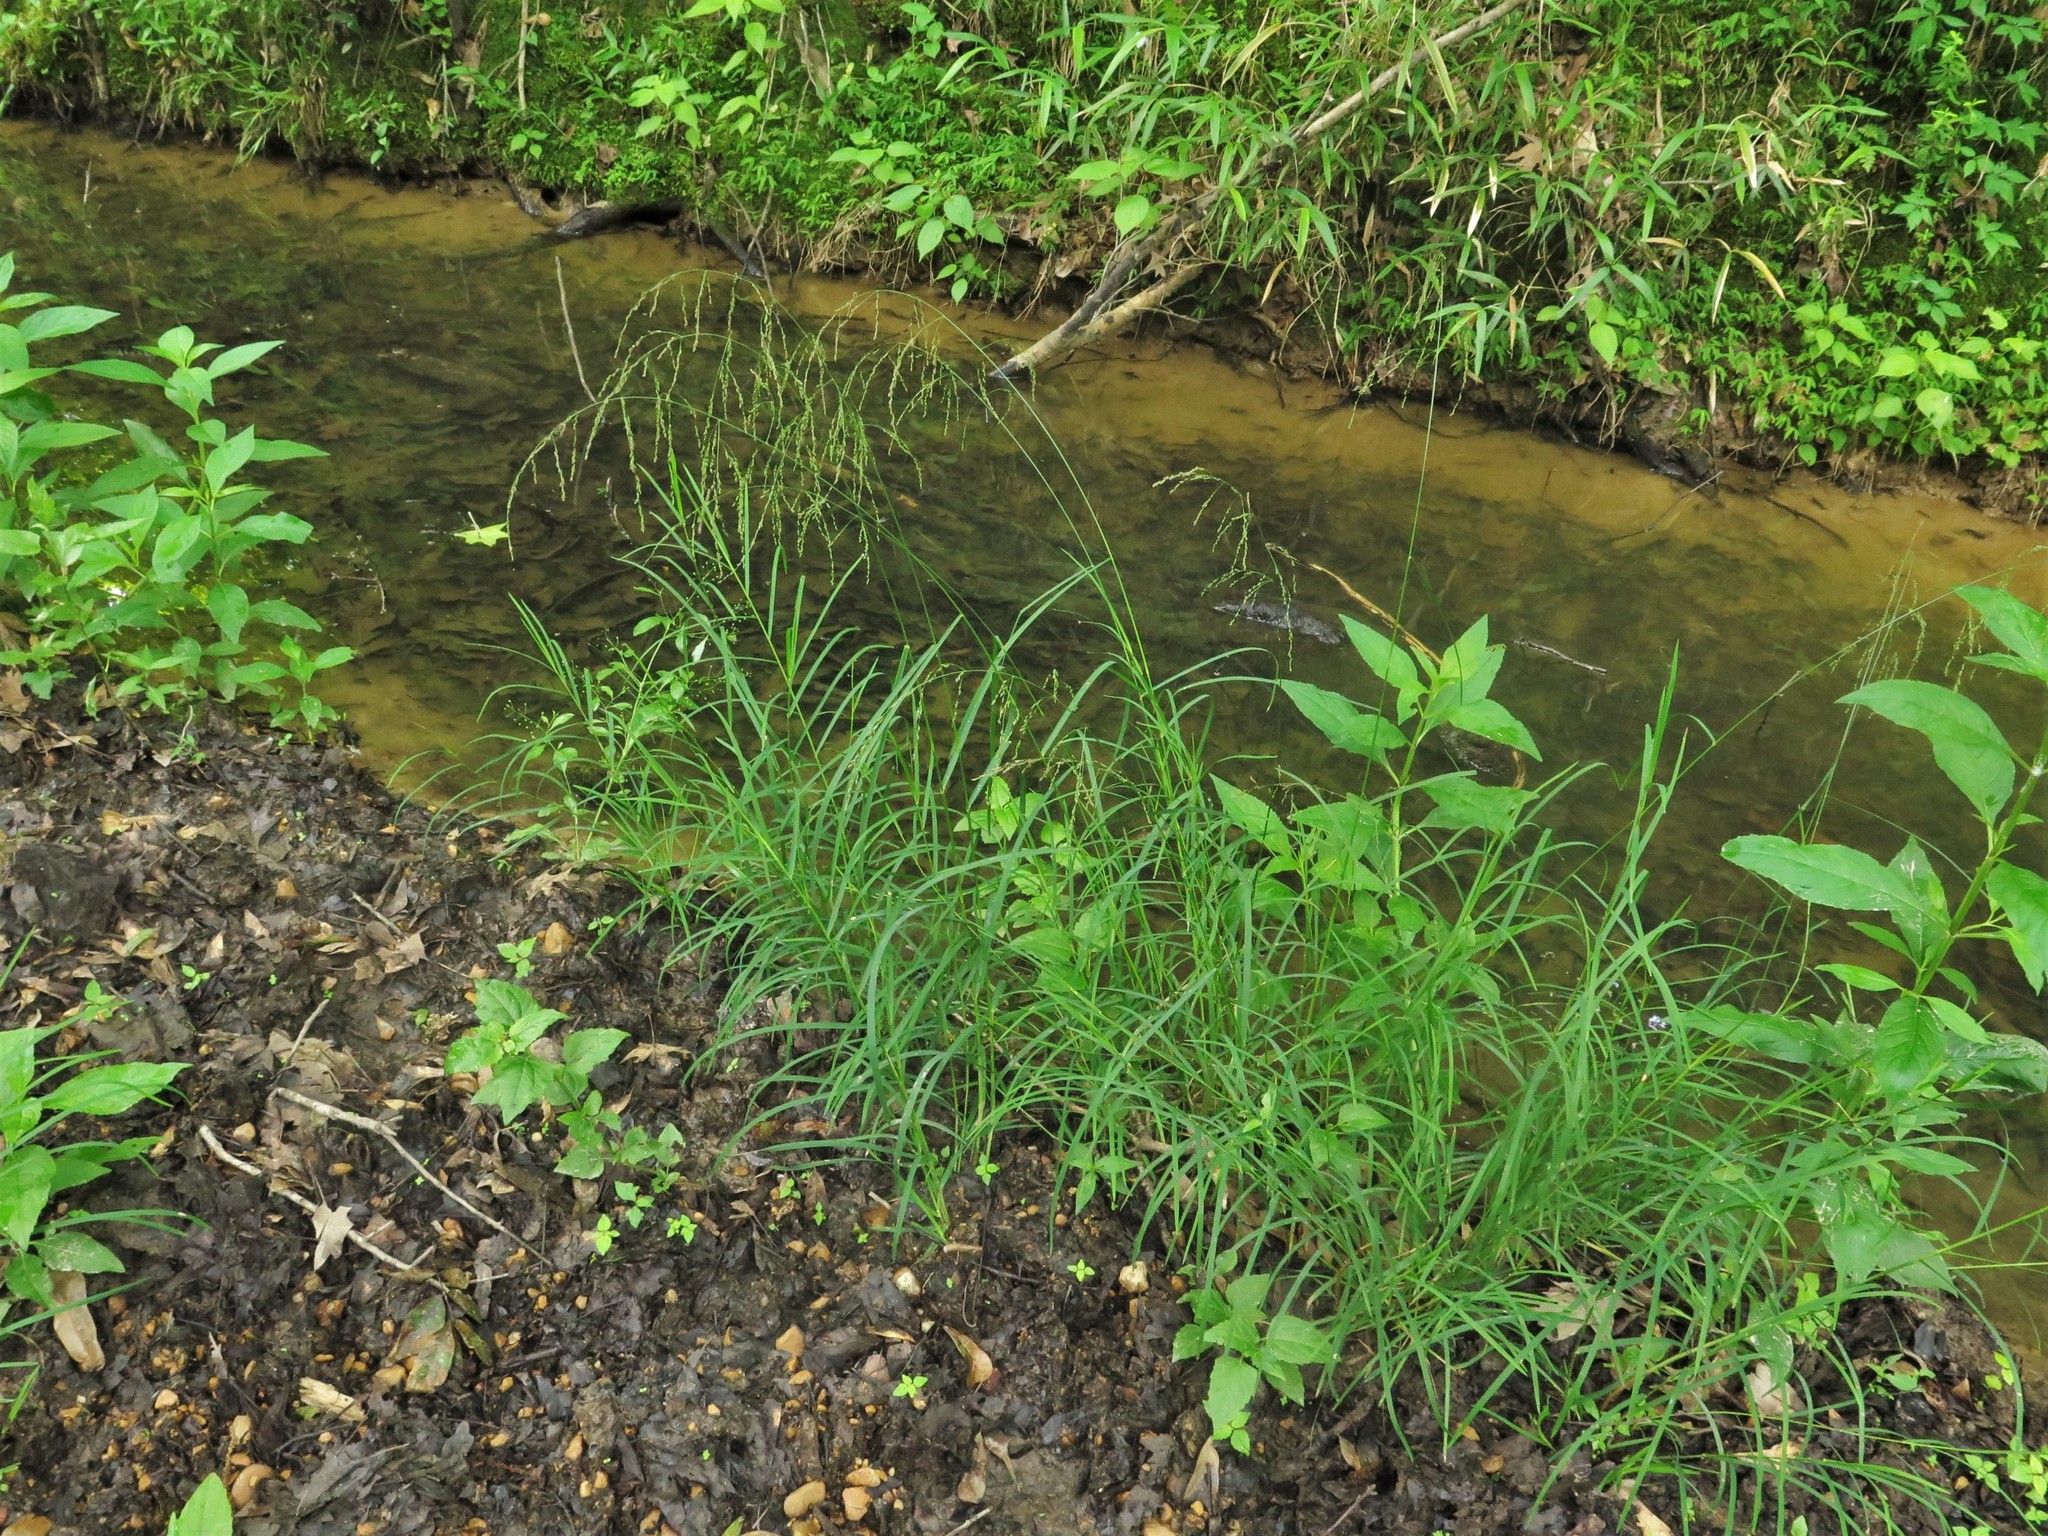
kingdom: Plantae
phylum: Tracheophyta
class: Liliopsida
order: Poales
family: Poaceae
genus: Glyceria
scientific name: Glyceria striata
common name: Fowl manna grass
